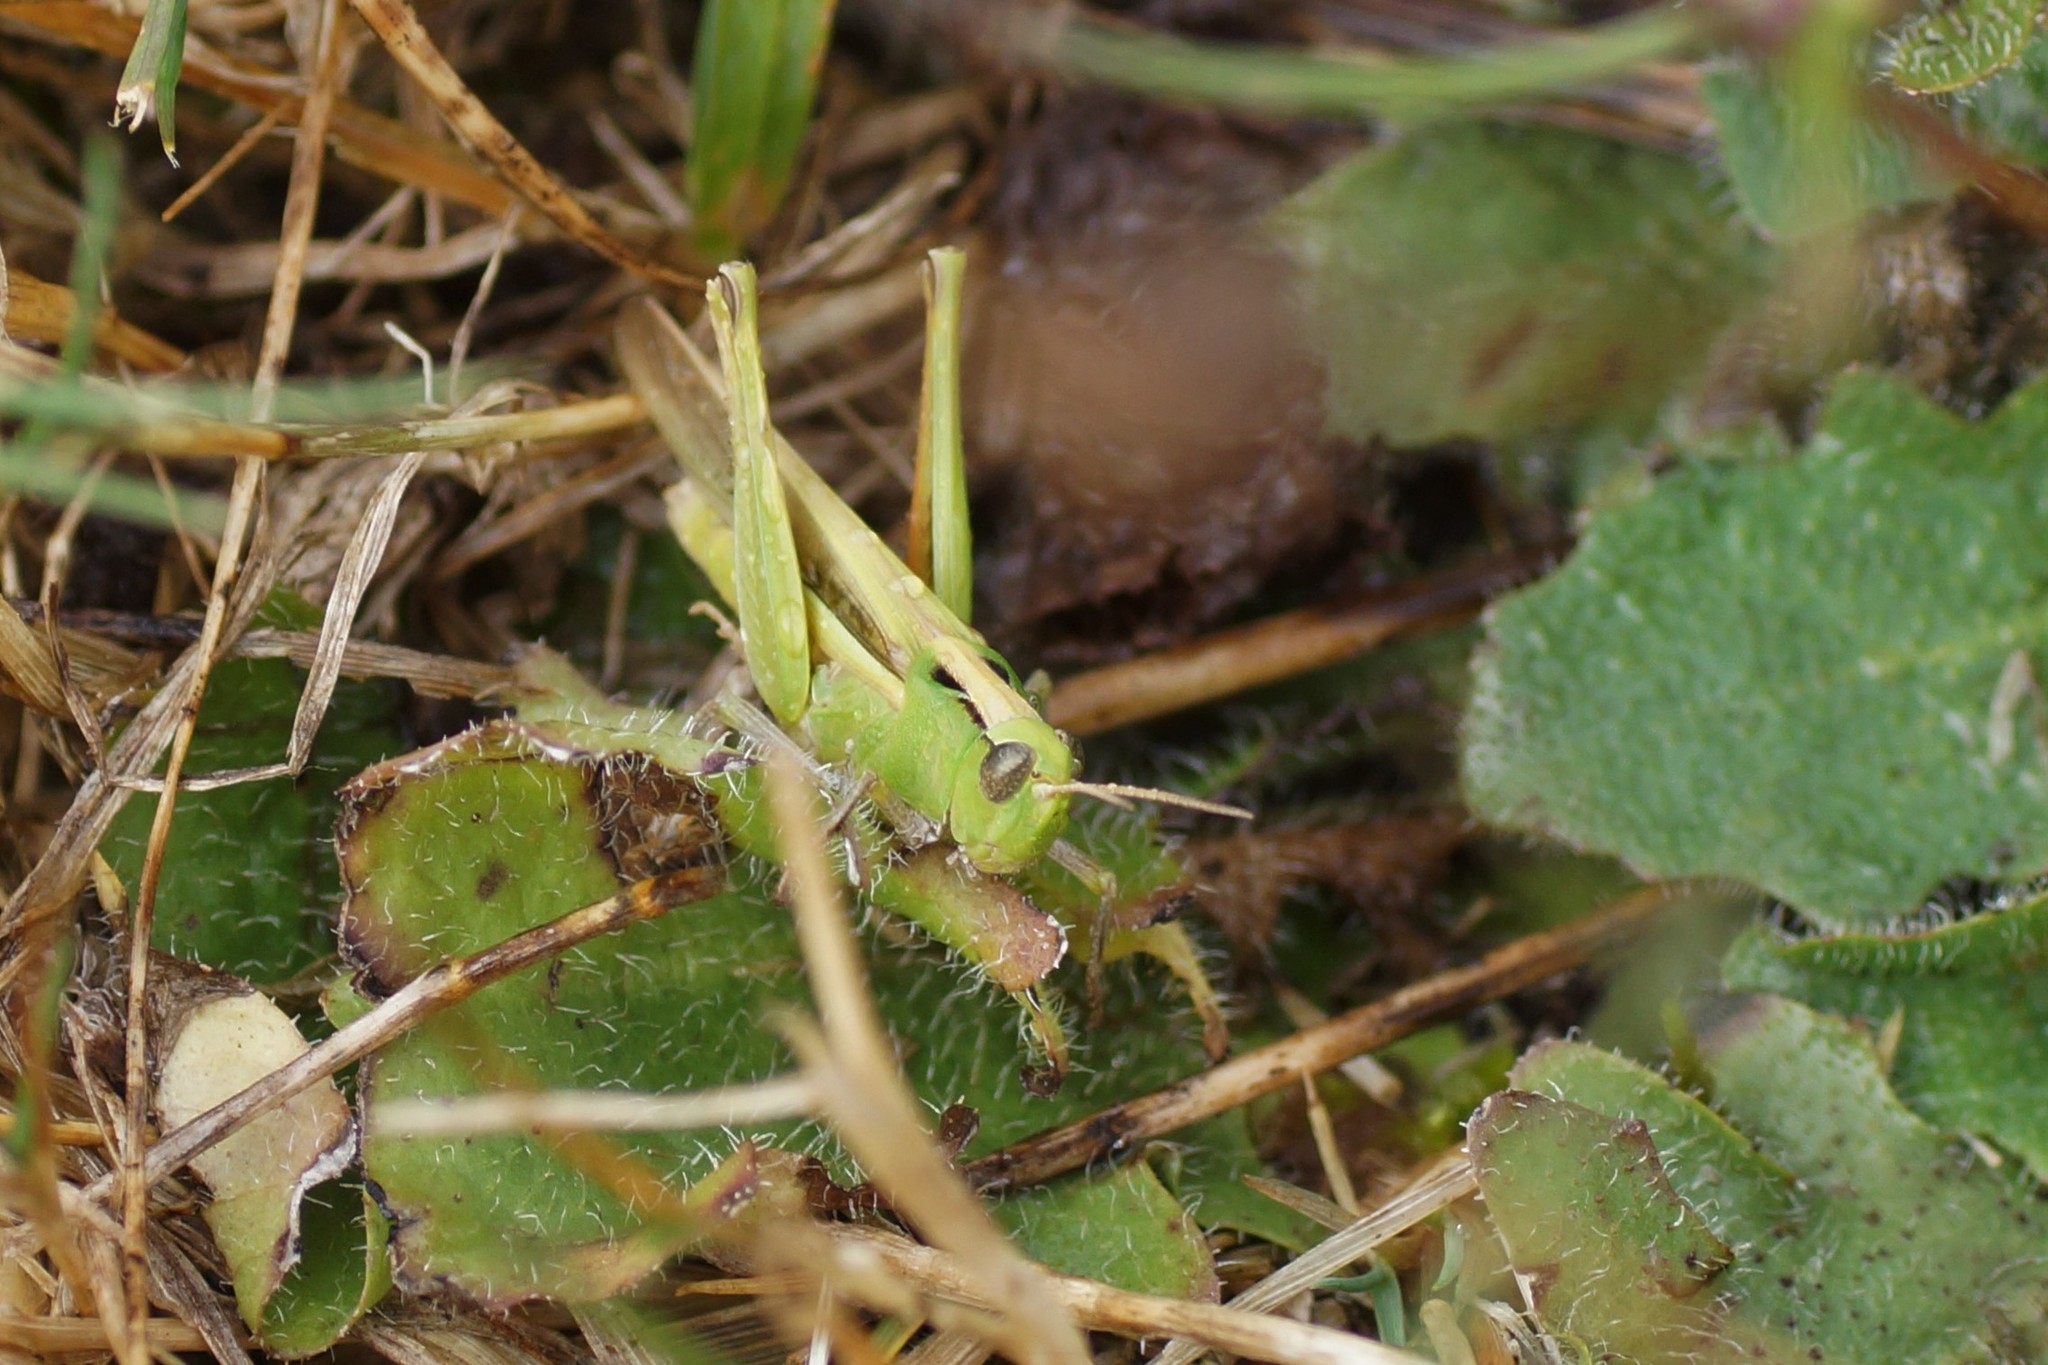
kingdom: Animalia
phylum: Arthropoda
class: Insecta
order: Orthoptera
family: Acrididae
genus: Schizobothrus
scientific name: Schizobothrus flavovittatus
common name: Disappearing grasshopper
